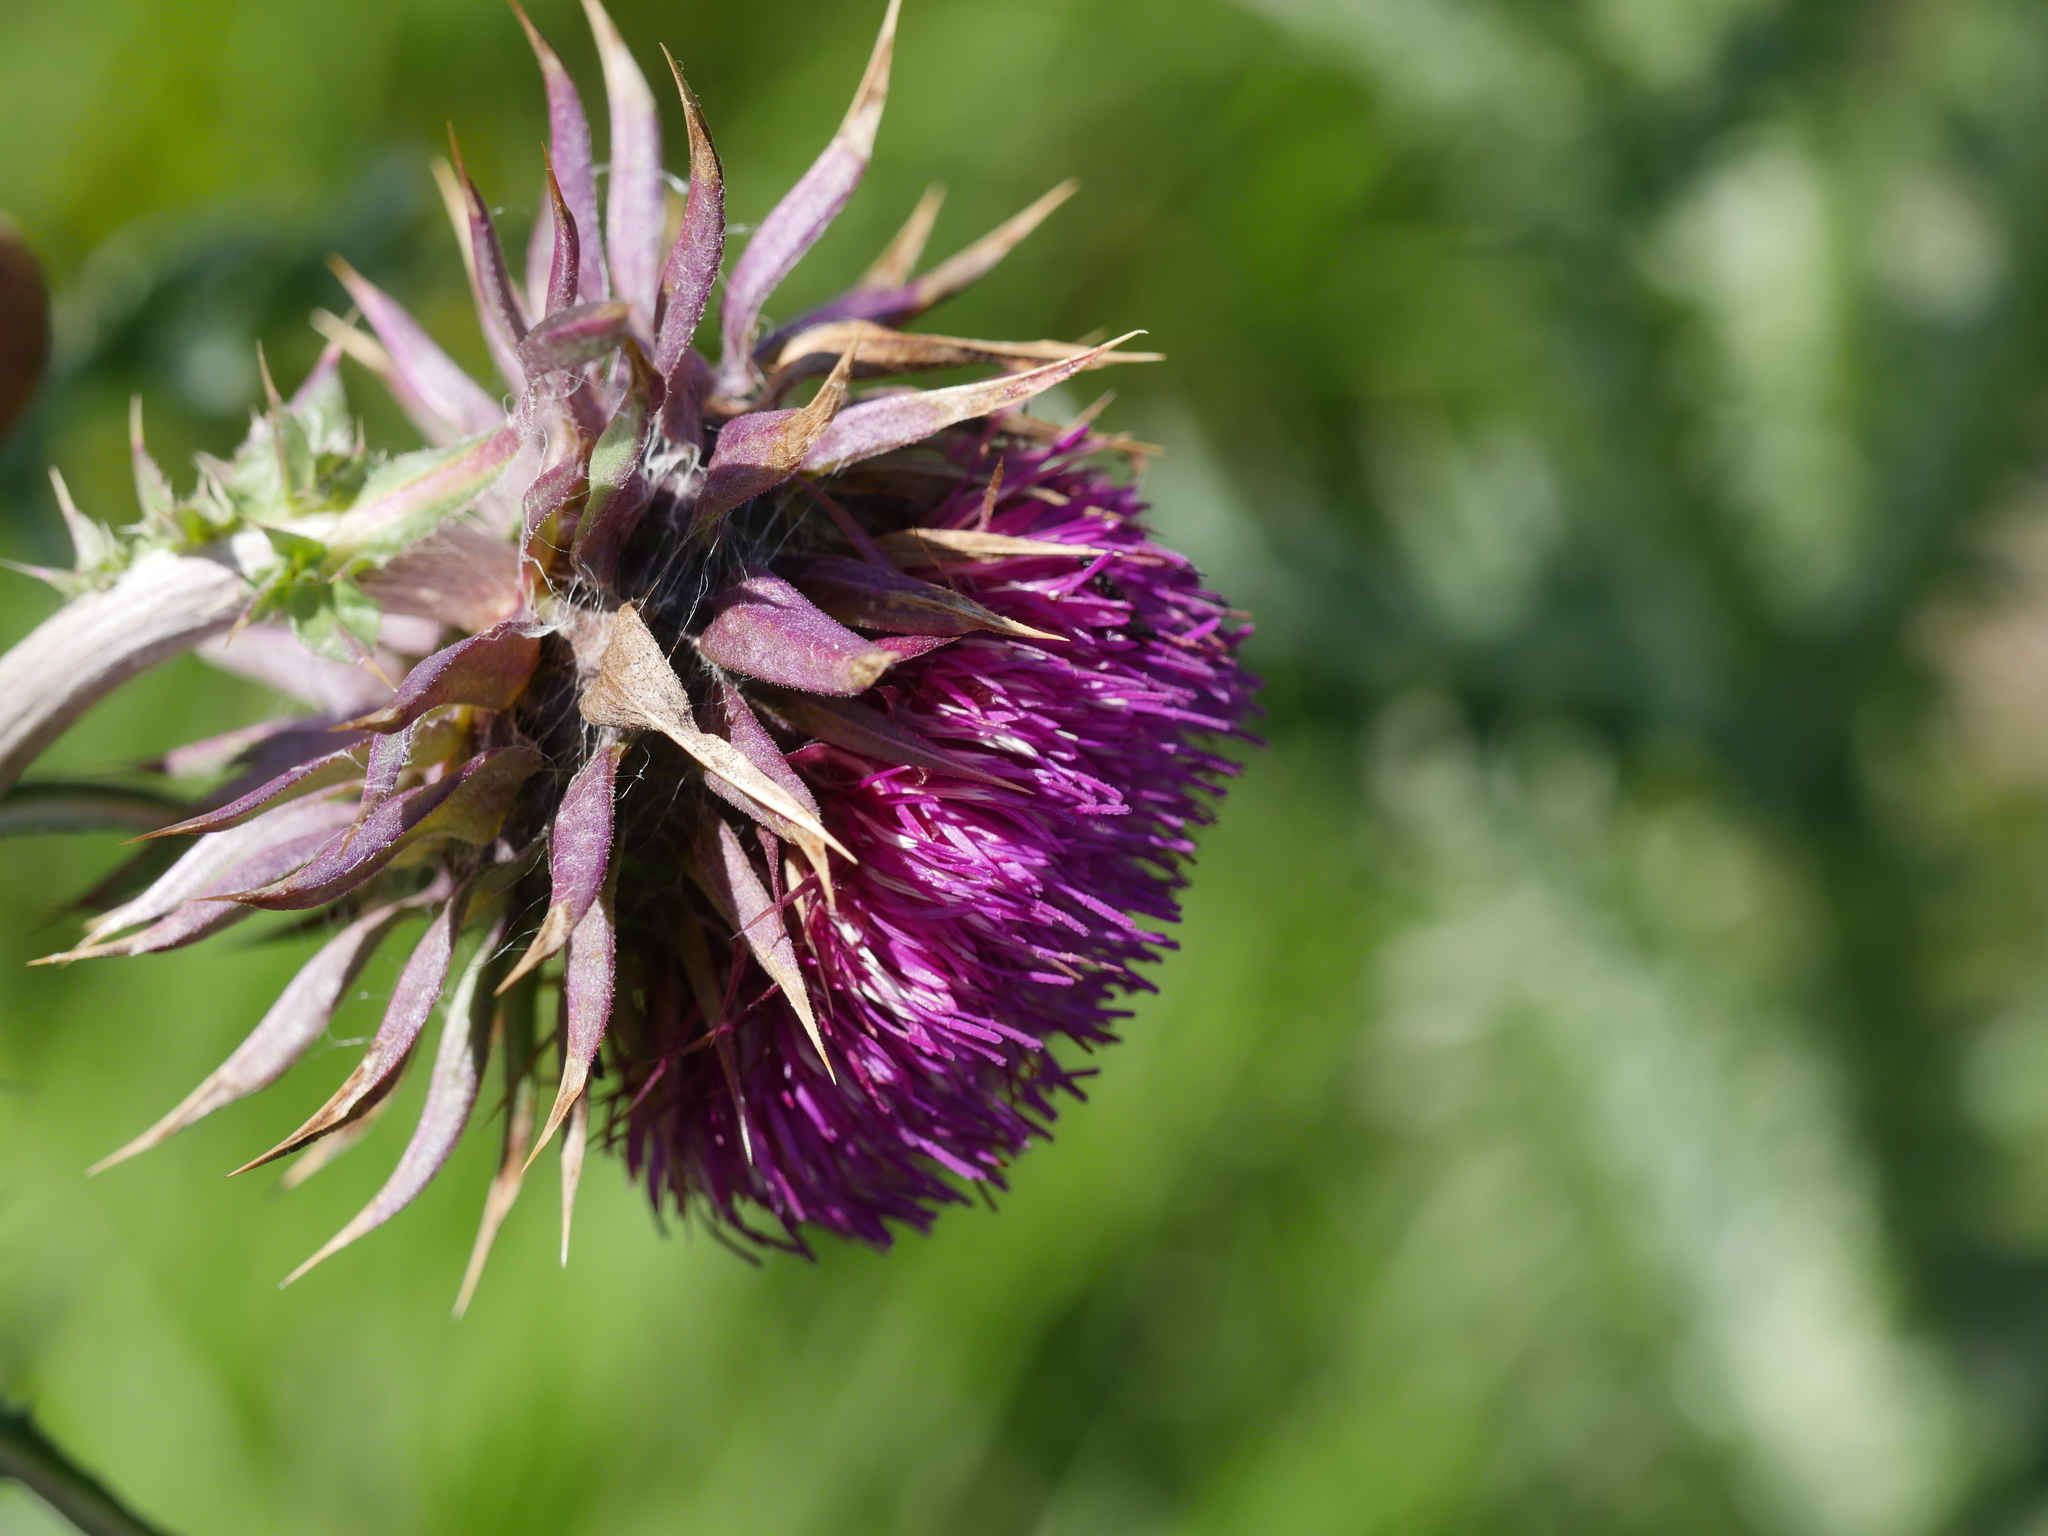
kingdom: Plantae
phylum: Tracheophyta
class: Magnoliopsida
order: Asterales
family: Asteraceae
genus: Carduus
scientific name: Carduus nutans
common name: Musk thistle
